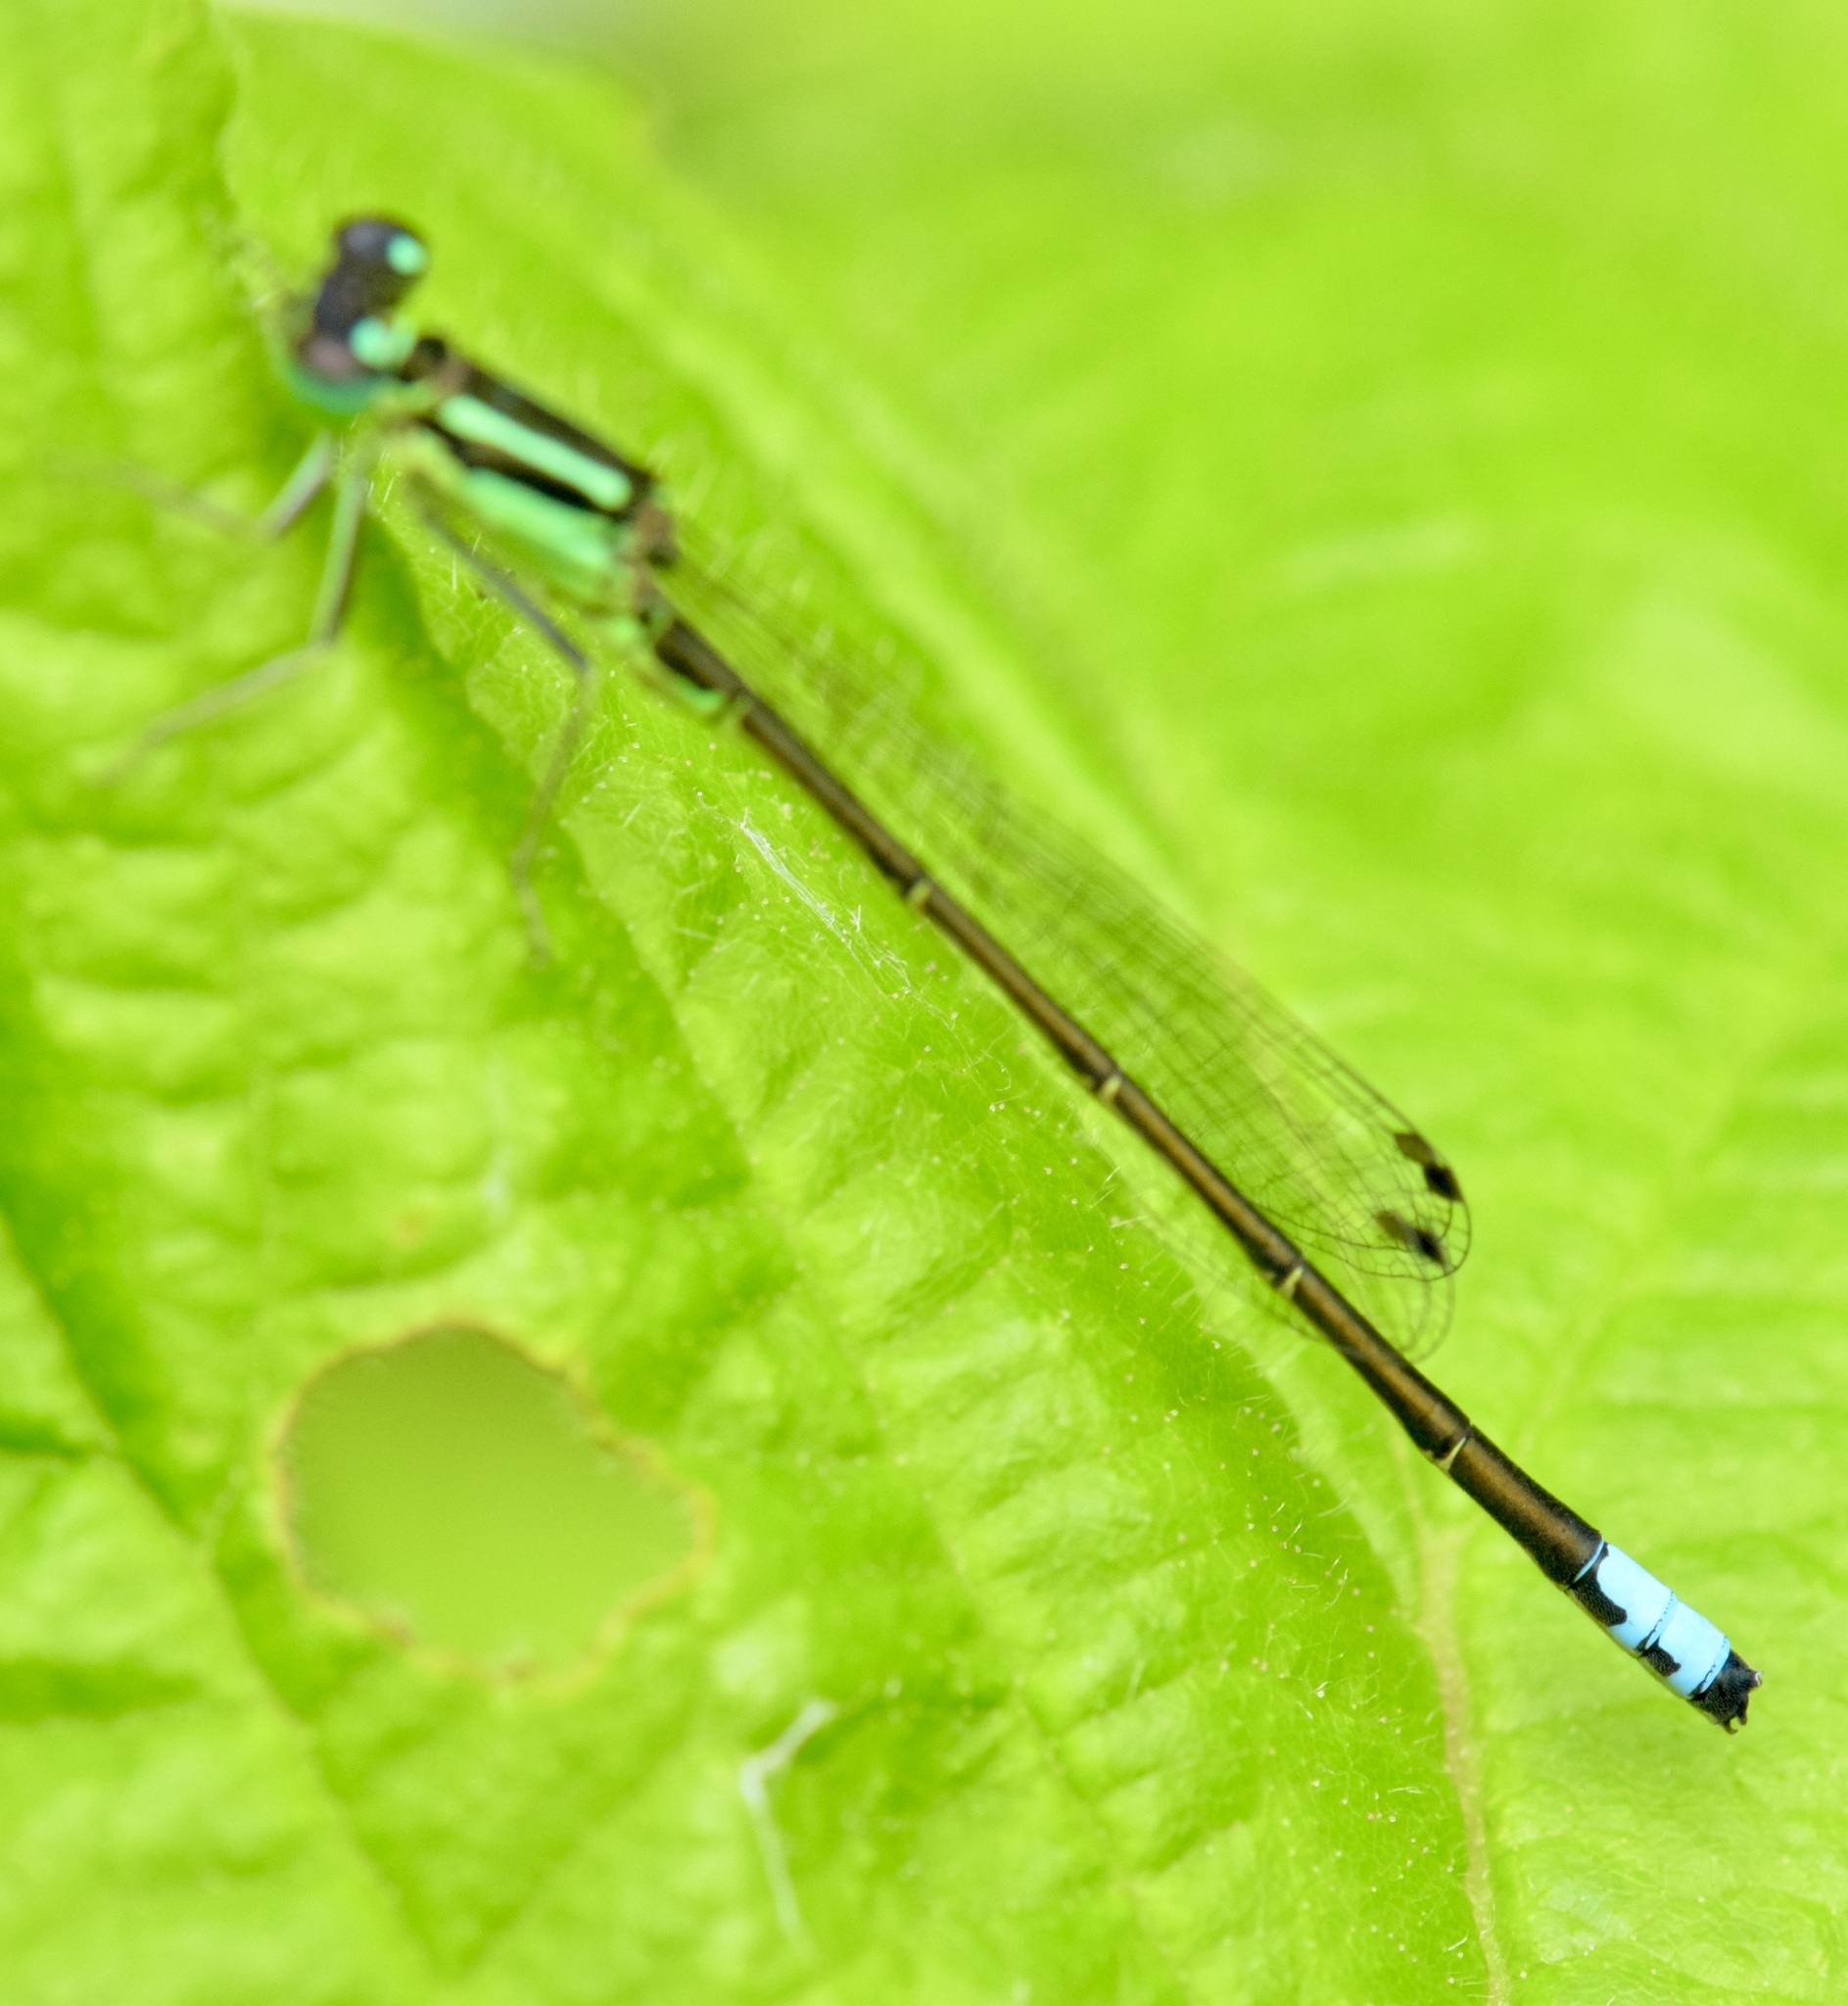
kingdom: Animalia
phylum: Arthropoda
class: Insecta
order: Odonata
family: Coenagrionidae
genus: Ischnura
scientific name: Ischnura verticalis
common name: Eastern forktail
